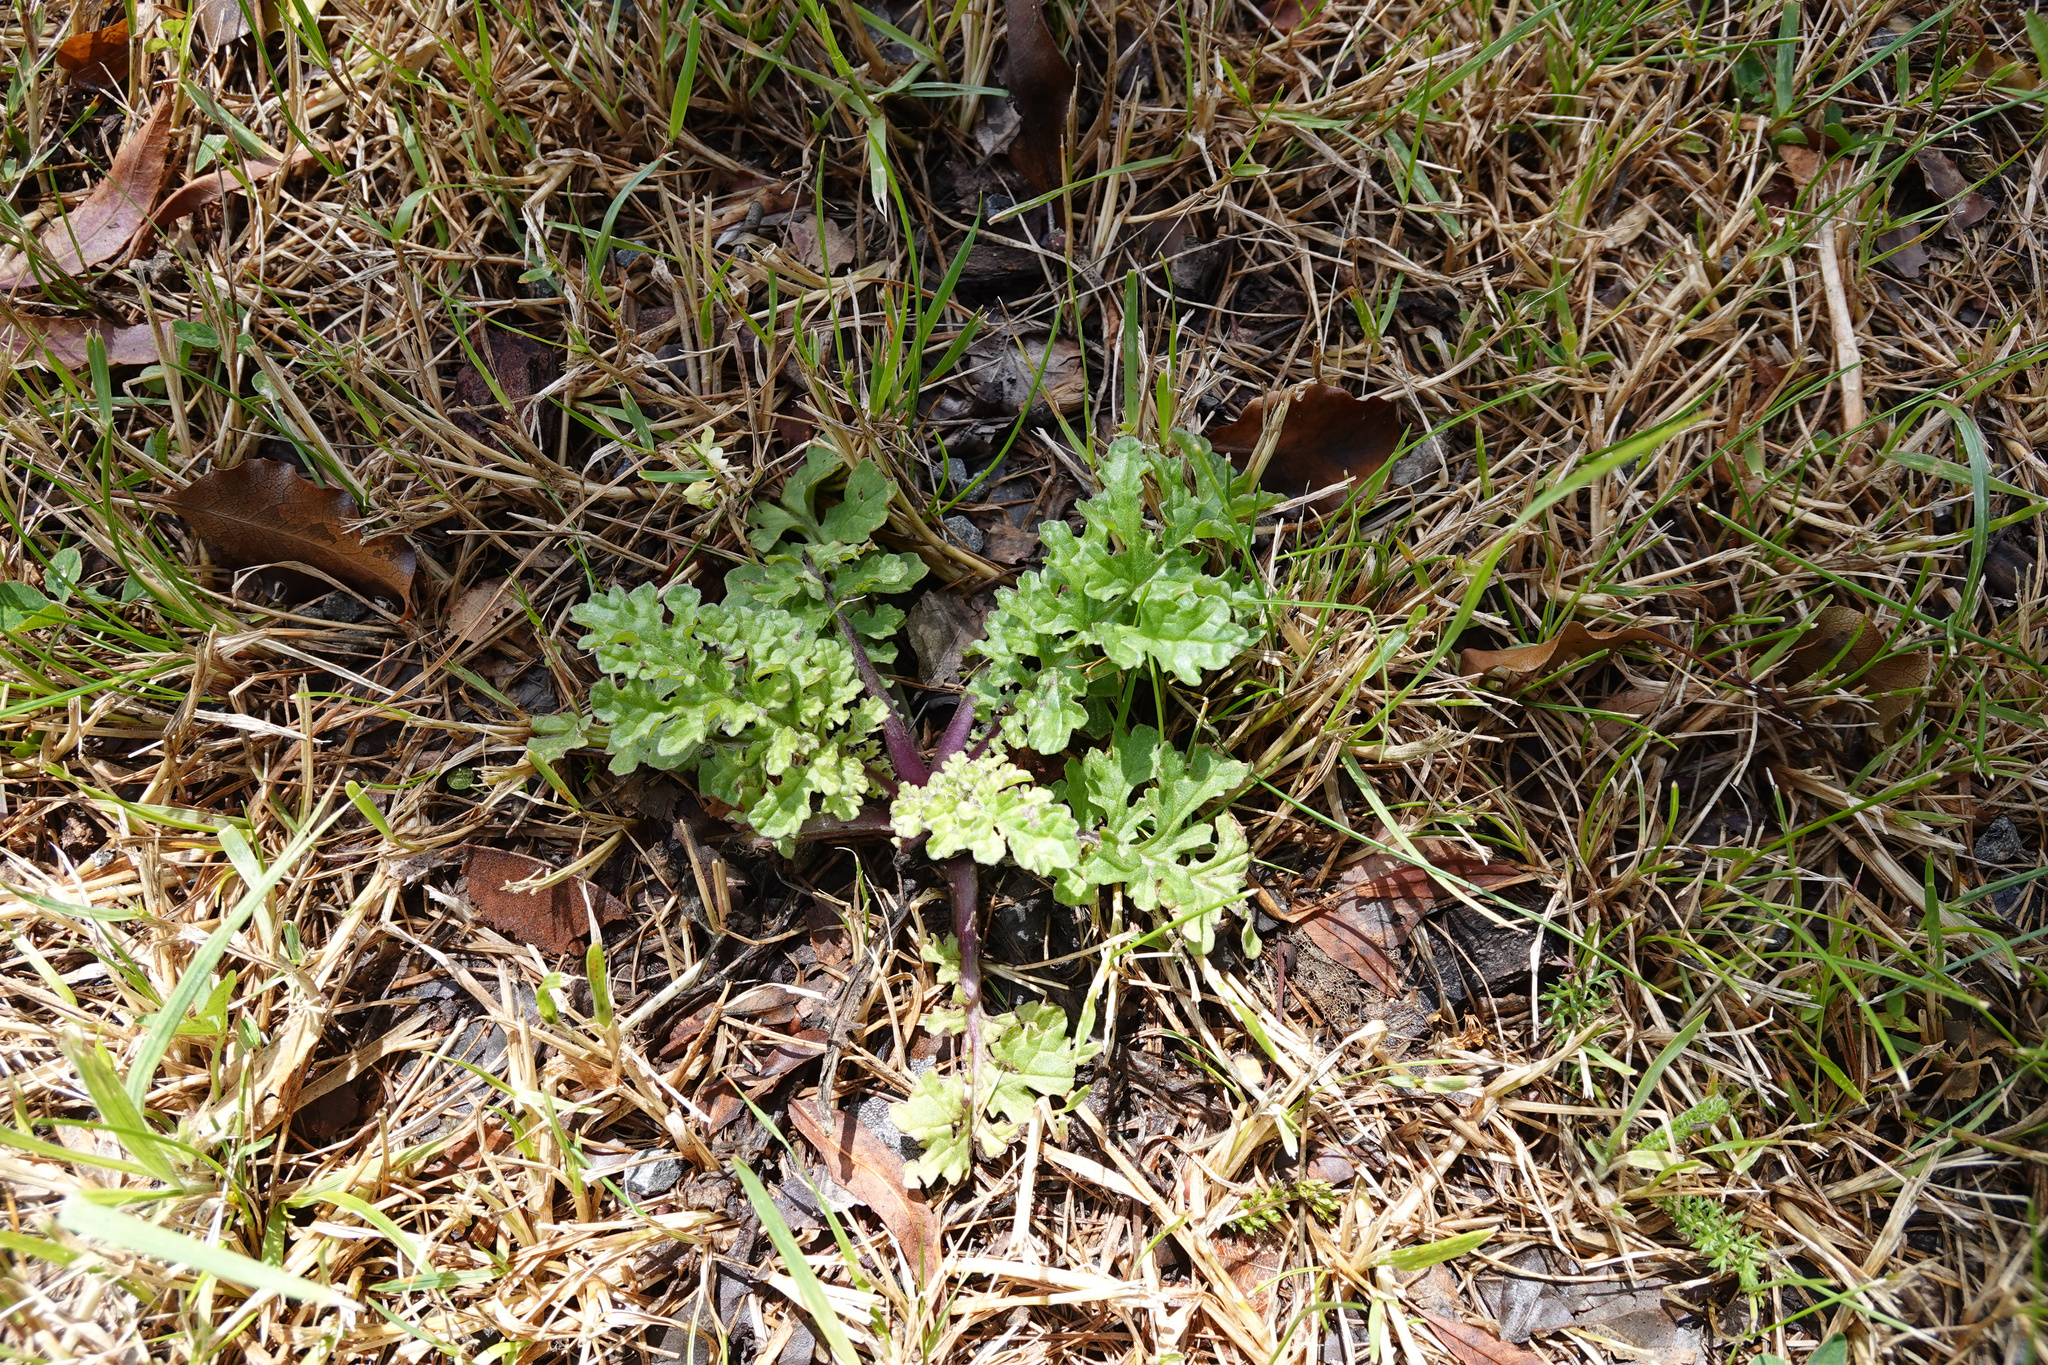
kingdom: Plantae
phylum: Tracheophyta
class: Magnoliopsida
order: Asterales
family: Asteraceae
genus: Jacobaea
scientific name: Jacobaea vulgaris
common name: Stinking willie
